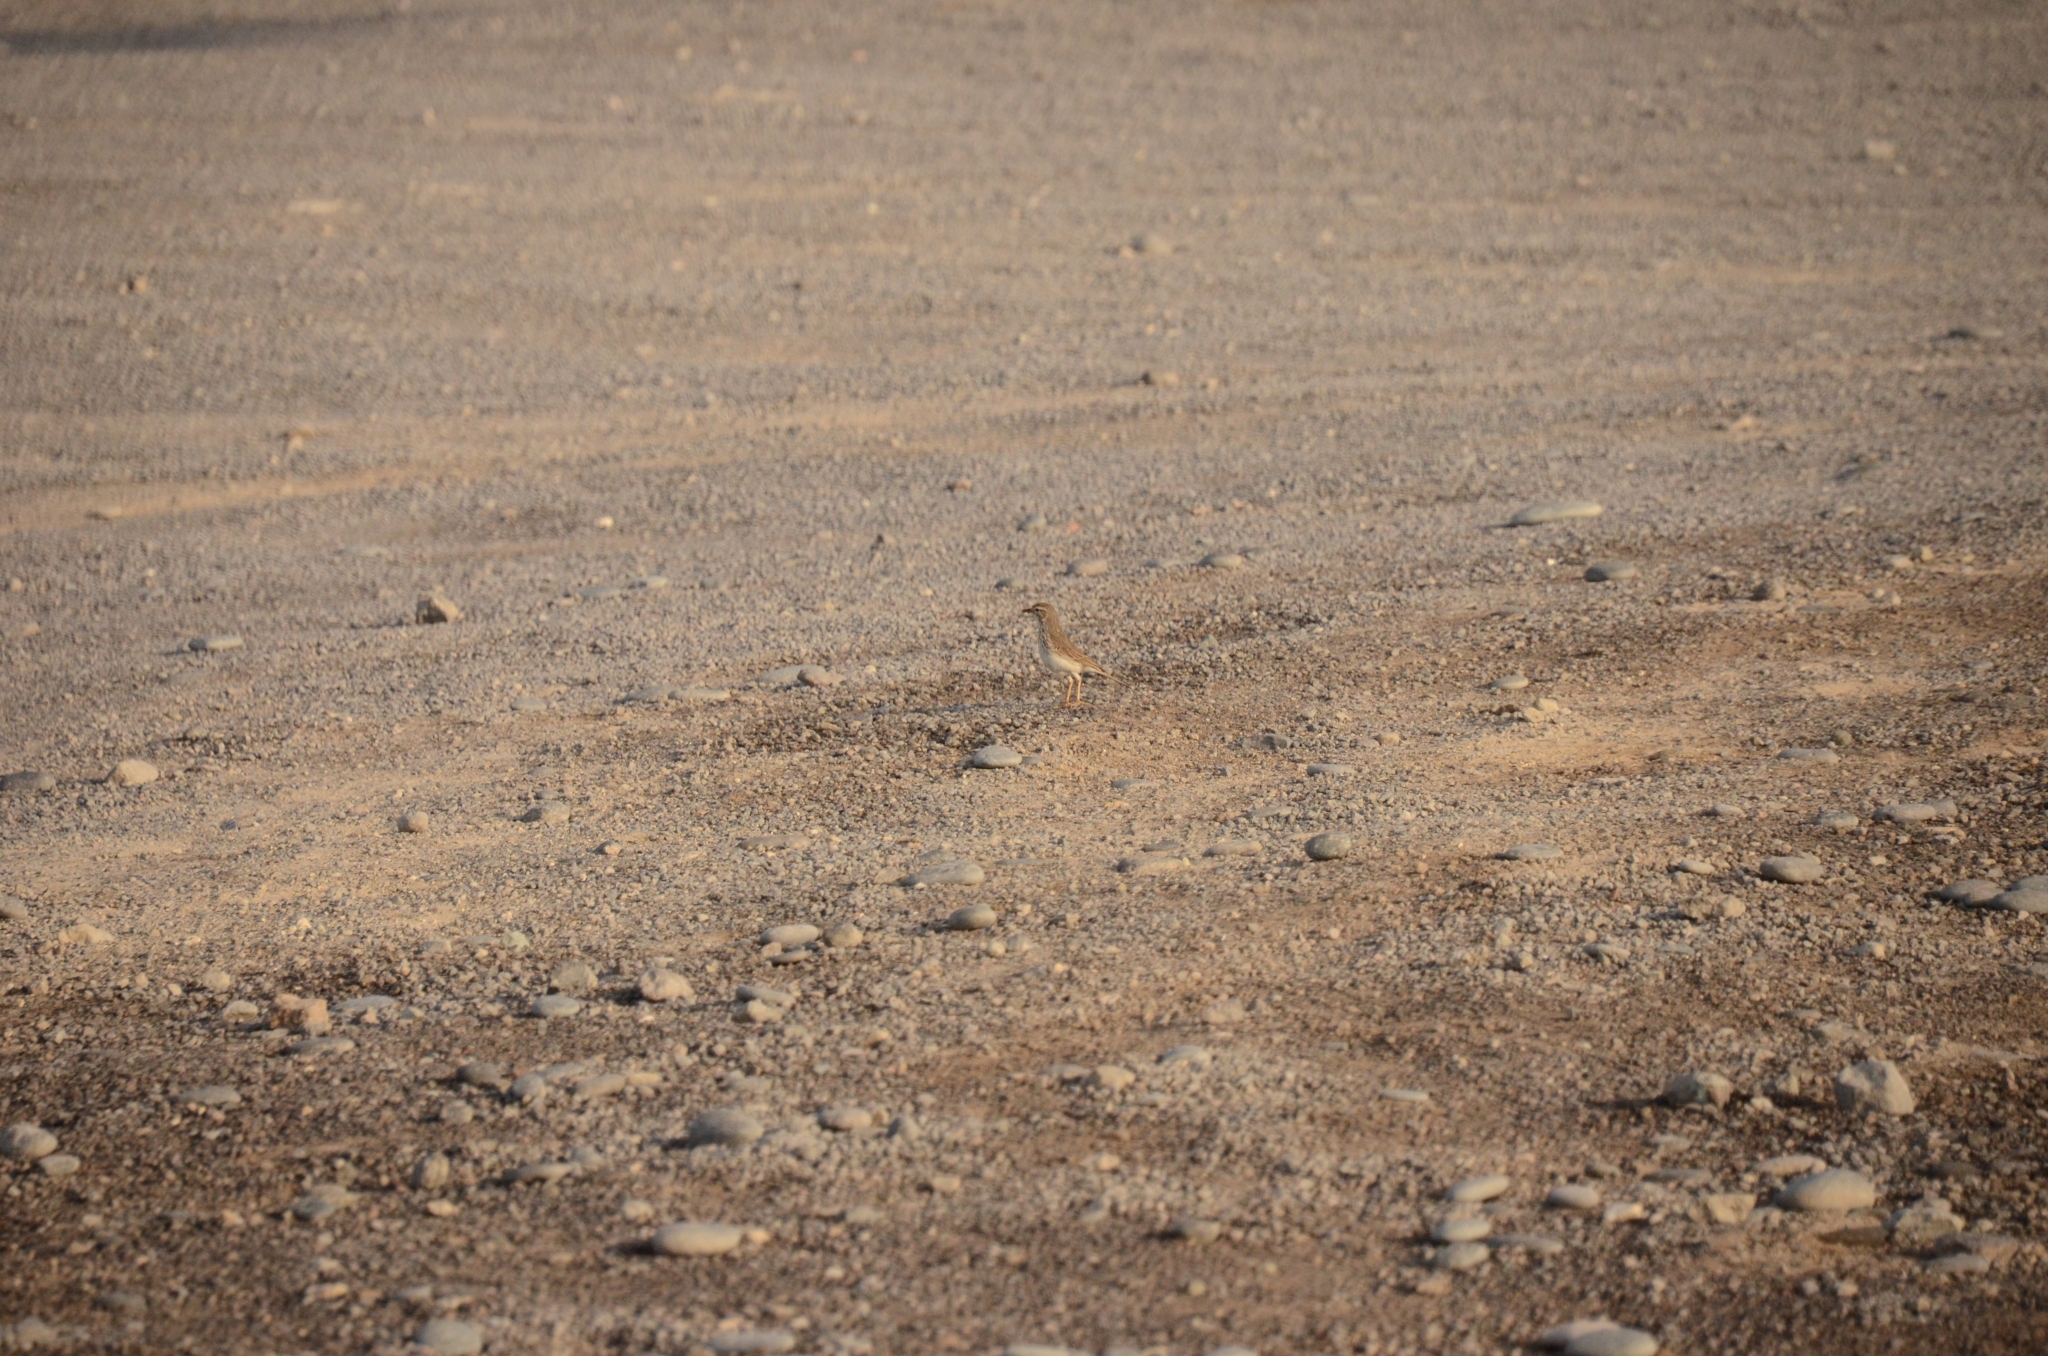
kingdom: Animalia
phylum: Chordata
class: Aves
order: Passeriformes
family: Motacillidae
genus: Anthus
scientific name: Anthus berthelotii
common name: Berthelot's pipit
